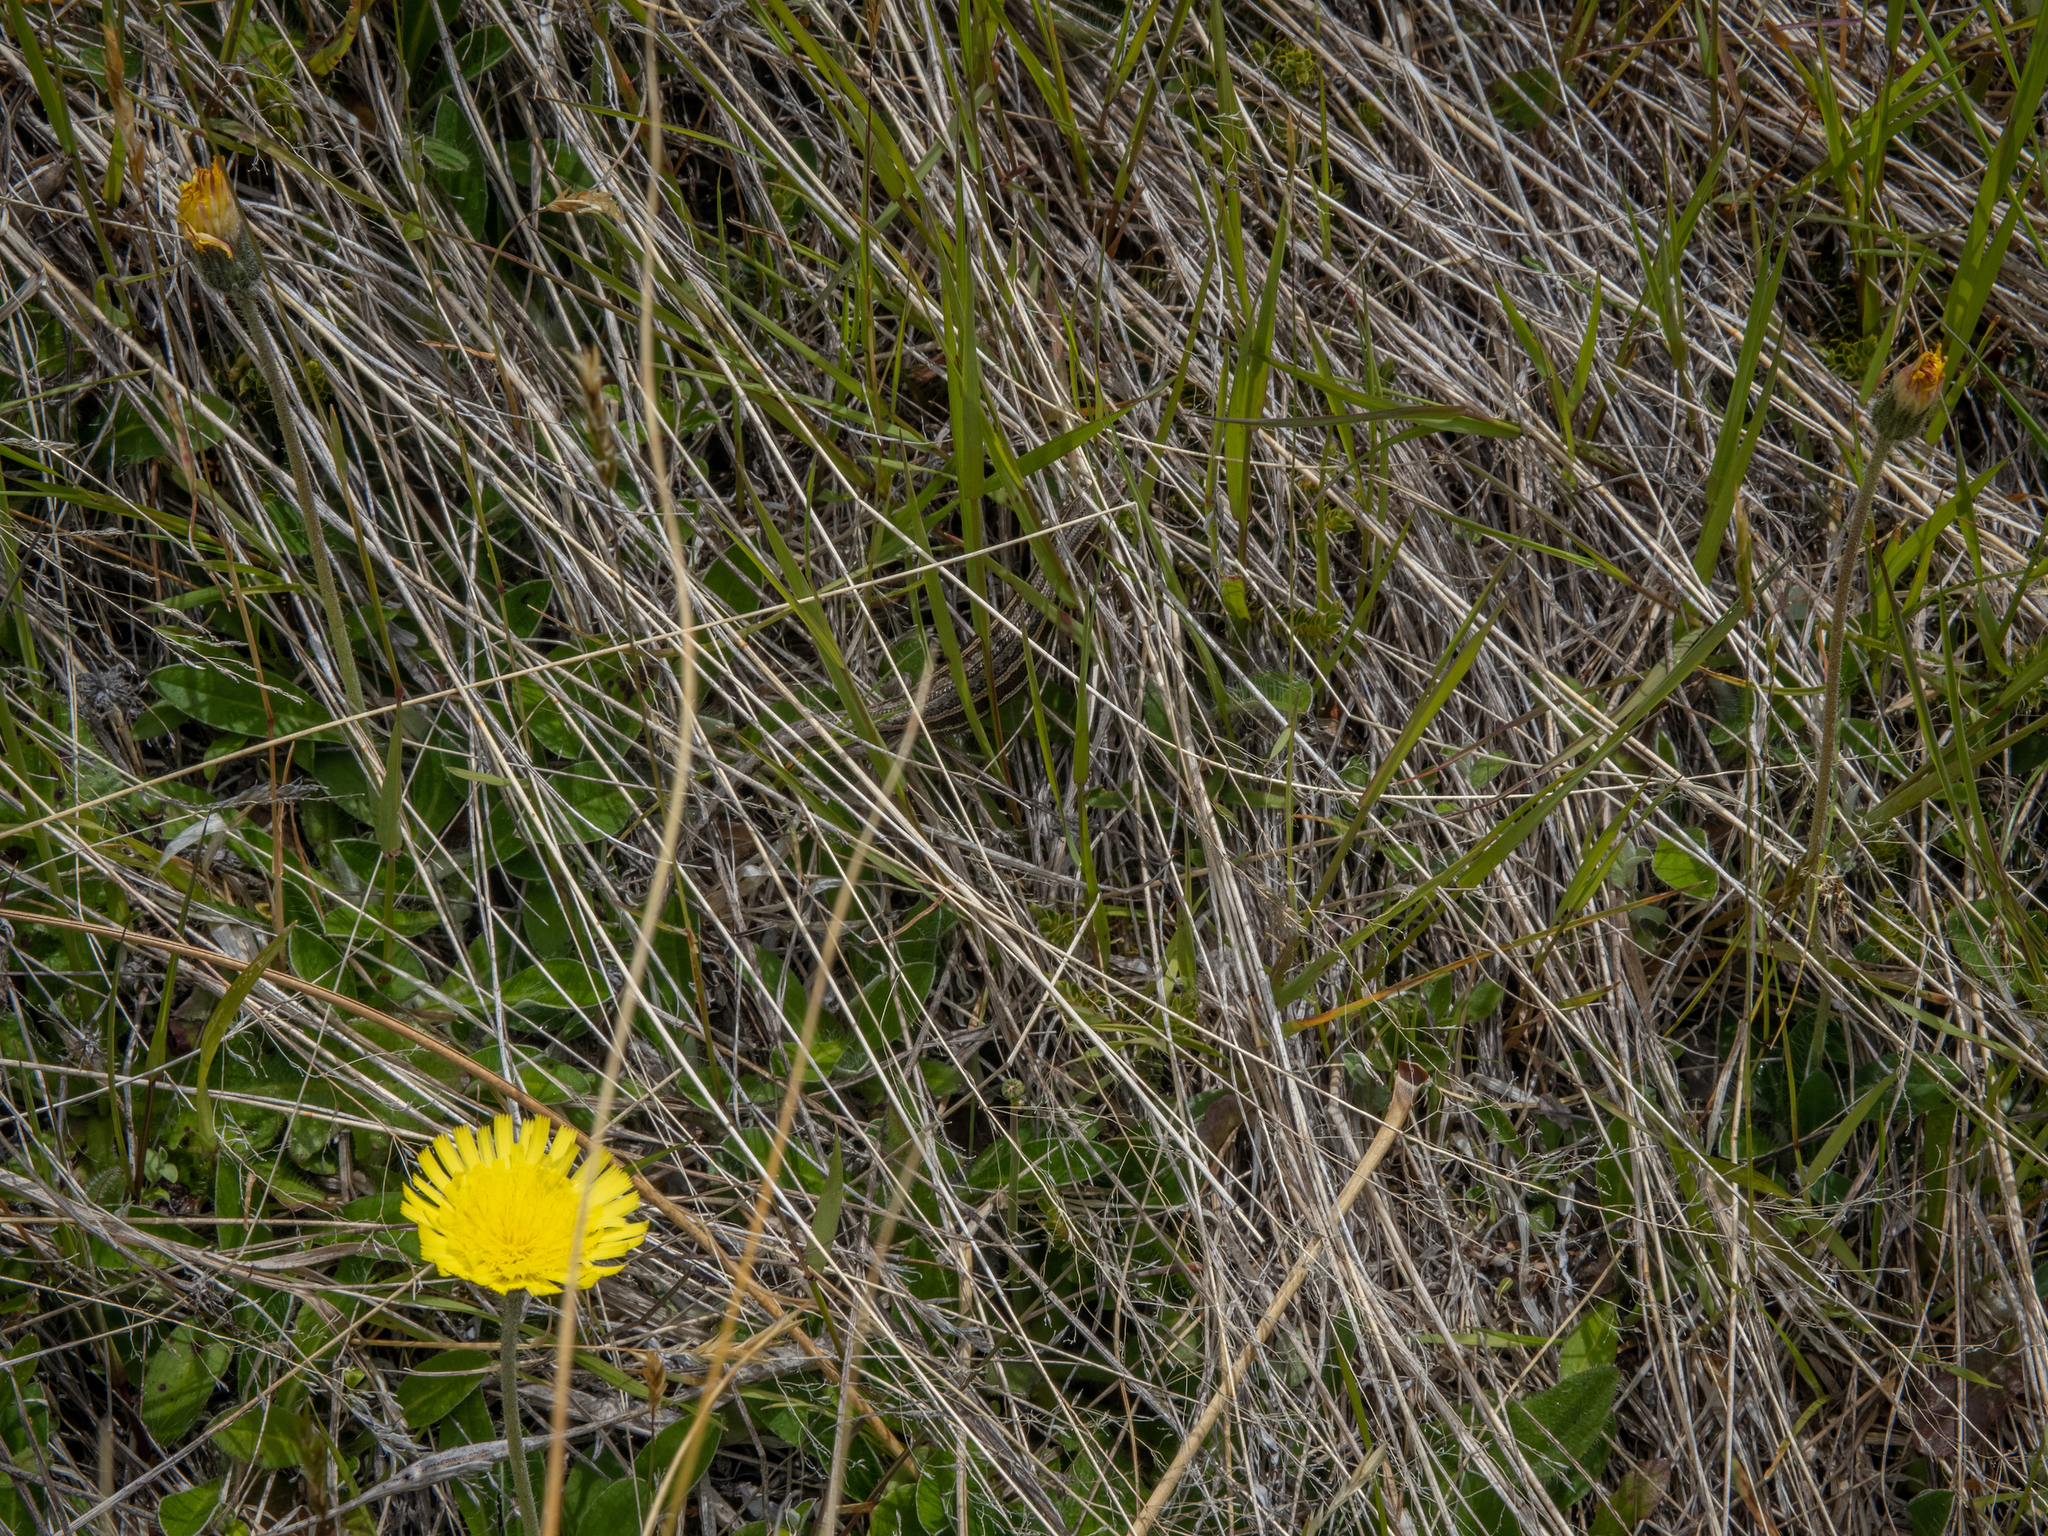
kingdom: Animalia
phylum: Chordata
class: Squamata
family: Scincidae
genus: Oligosoma
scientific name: Oligosoma maccanni
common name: Mccann’s skink
